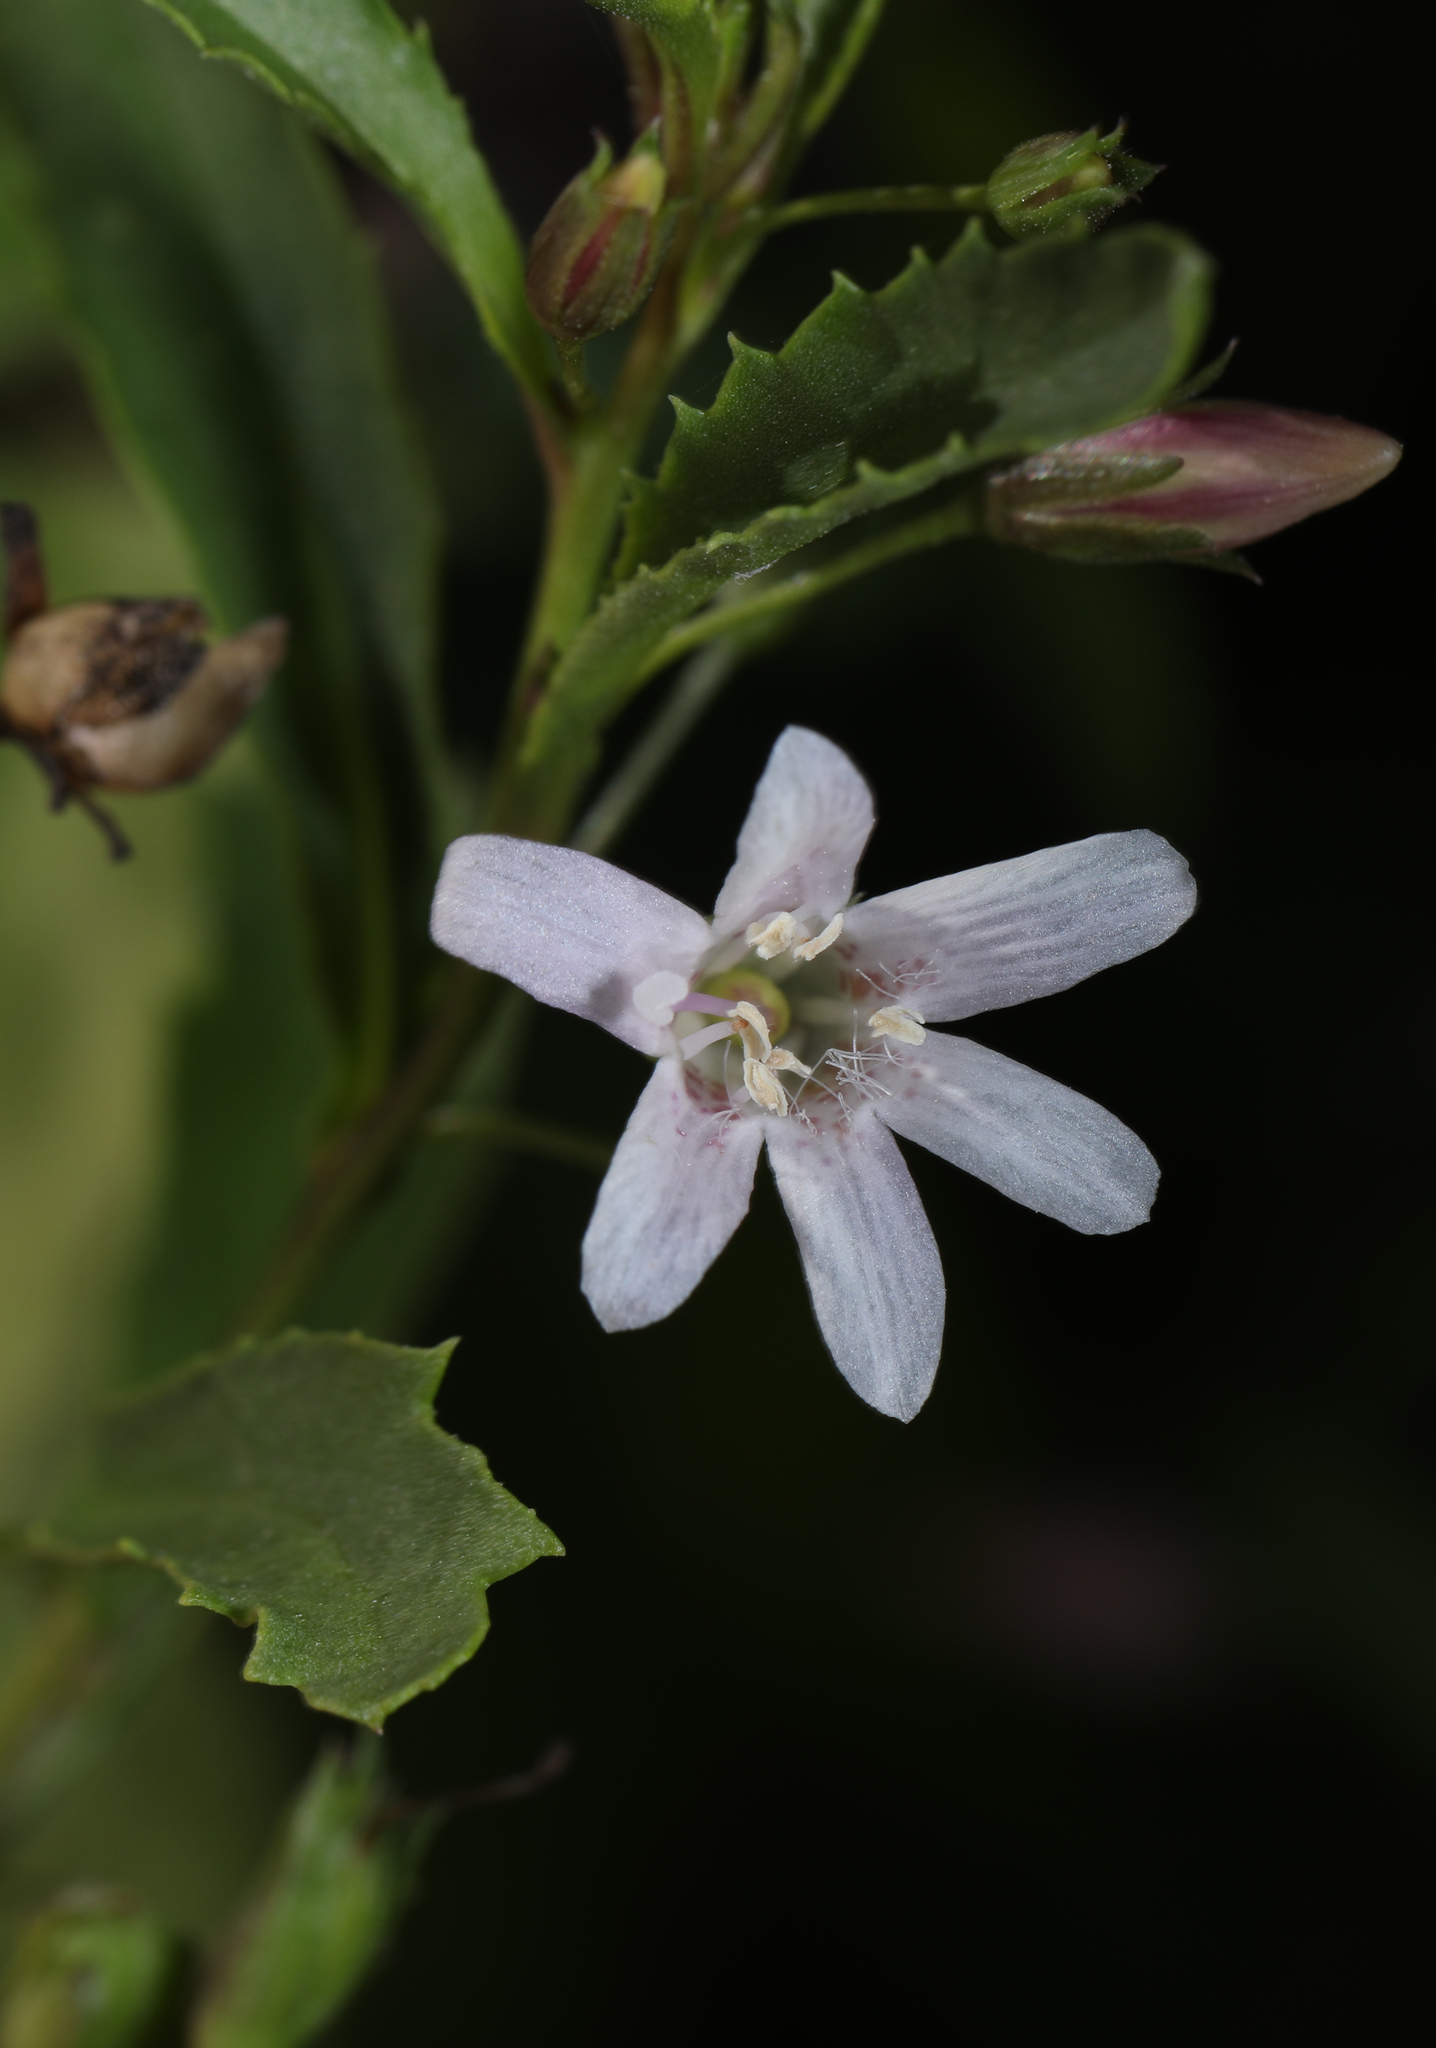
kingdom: Plantae
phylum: Tracheophyta
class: Magnoliopsida
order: Lamiales
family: Scrophulariaceae
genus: Capraria
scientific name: Capraria biflora
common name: Goatweed
